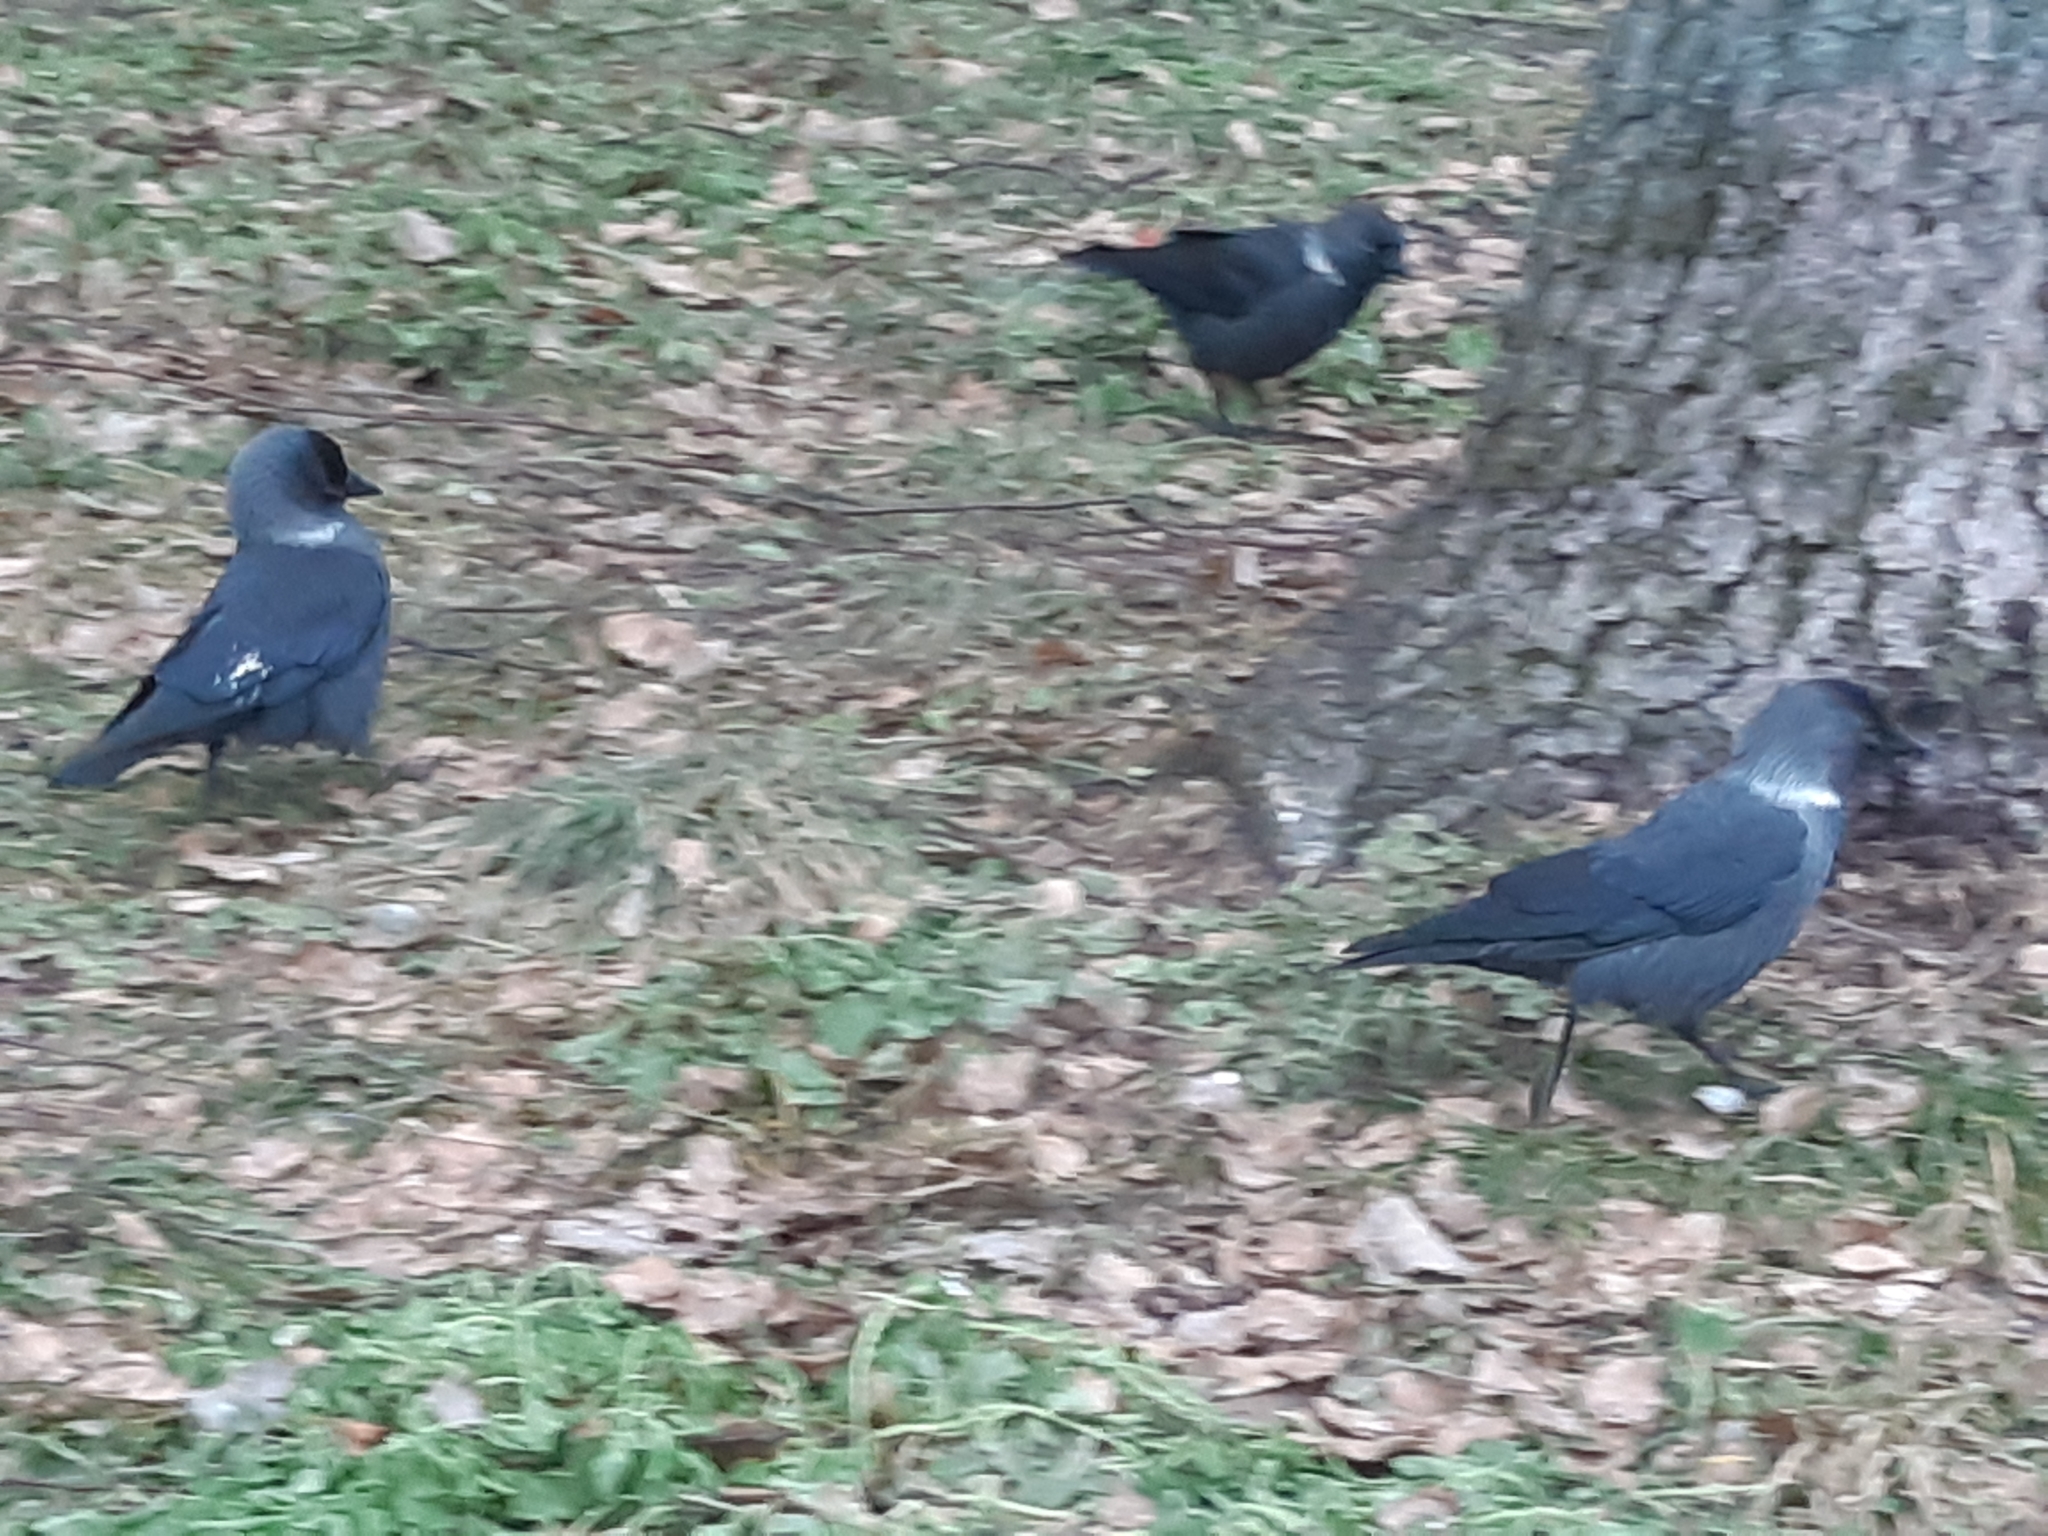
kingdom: Animalia
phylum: Chordata
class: Aves
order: Passeriformes
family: Corvidae
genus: Coloeus
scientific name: Coloeus monedula
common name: Western jackdaw
